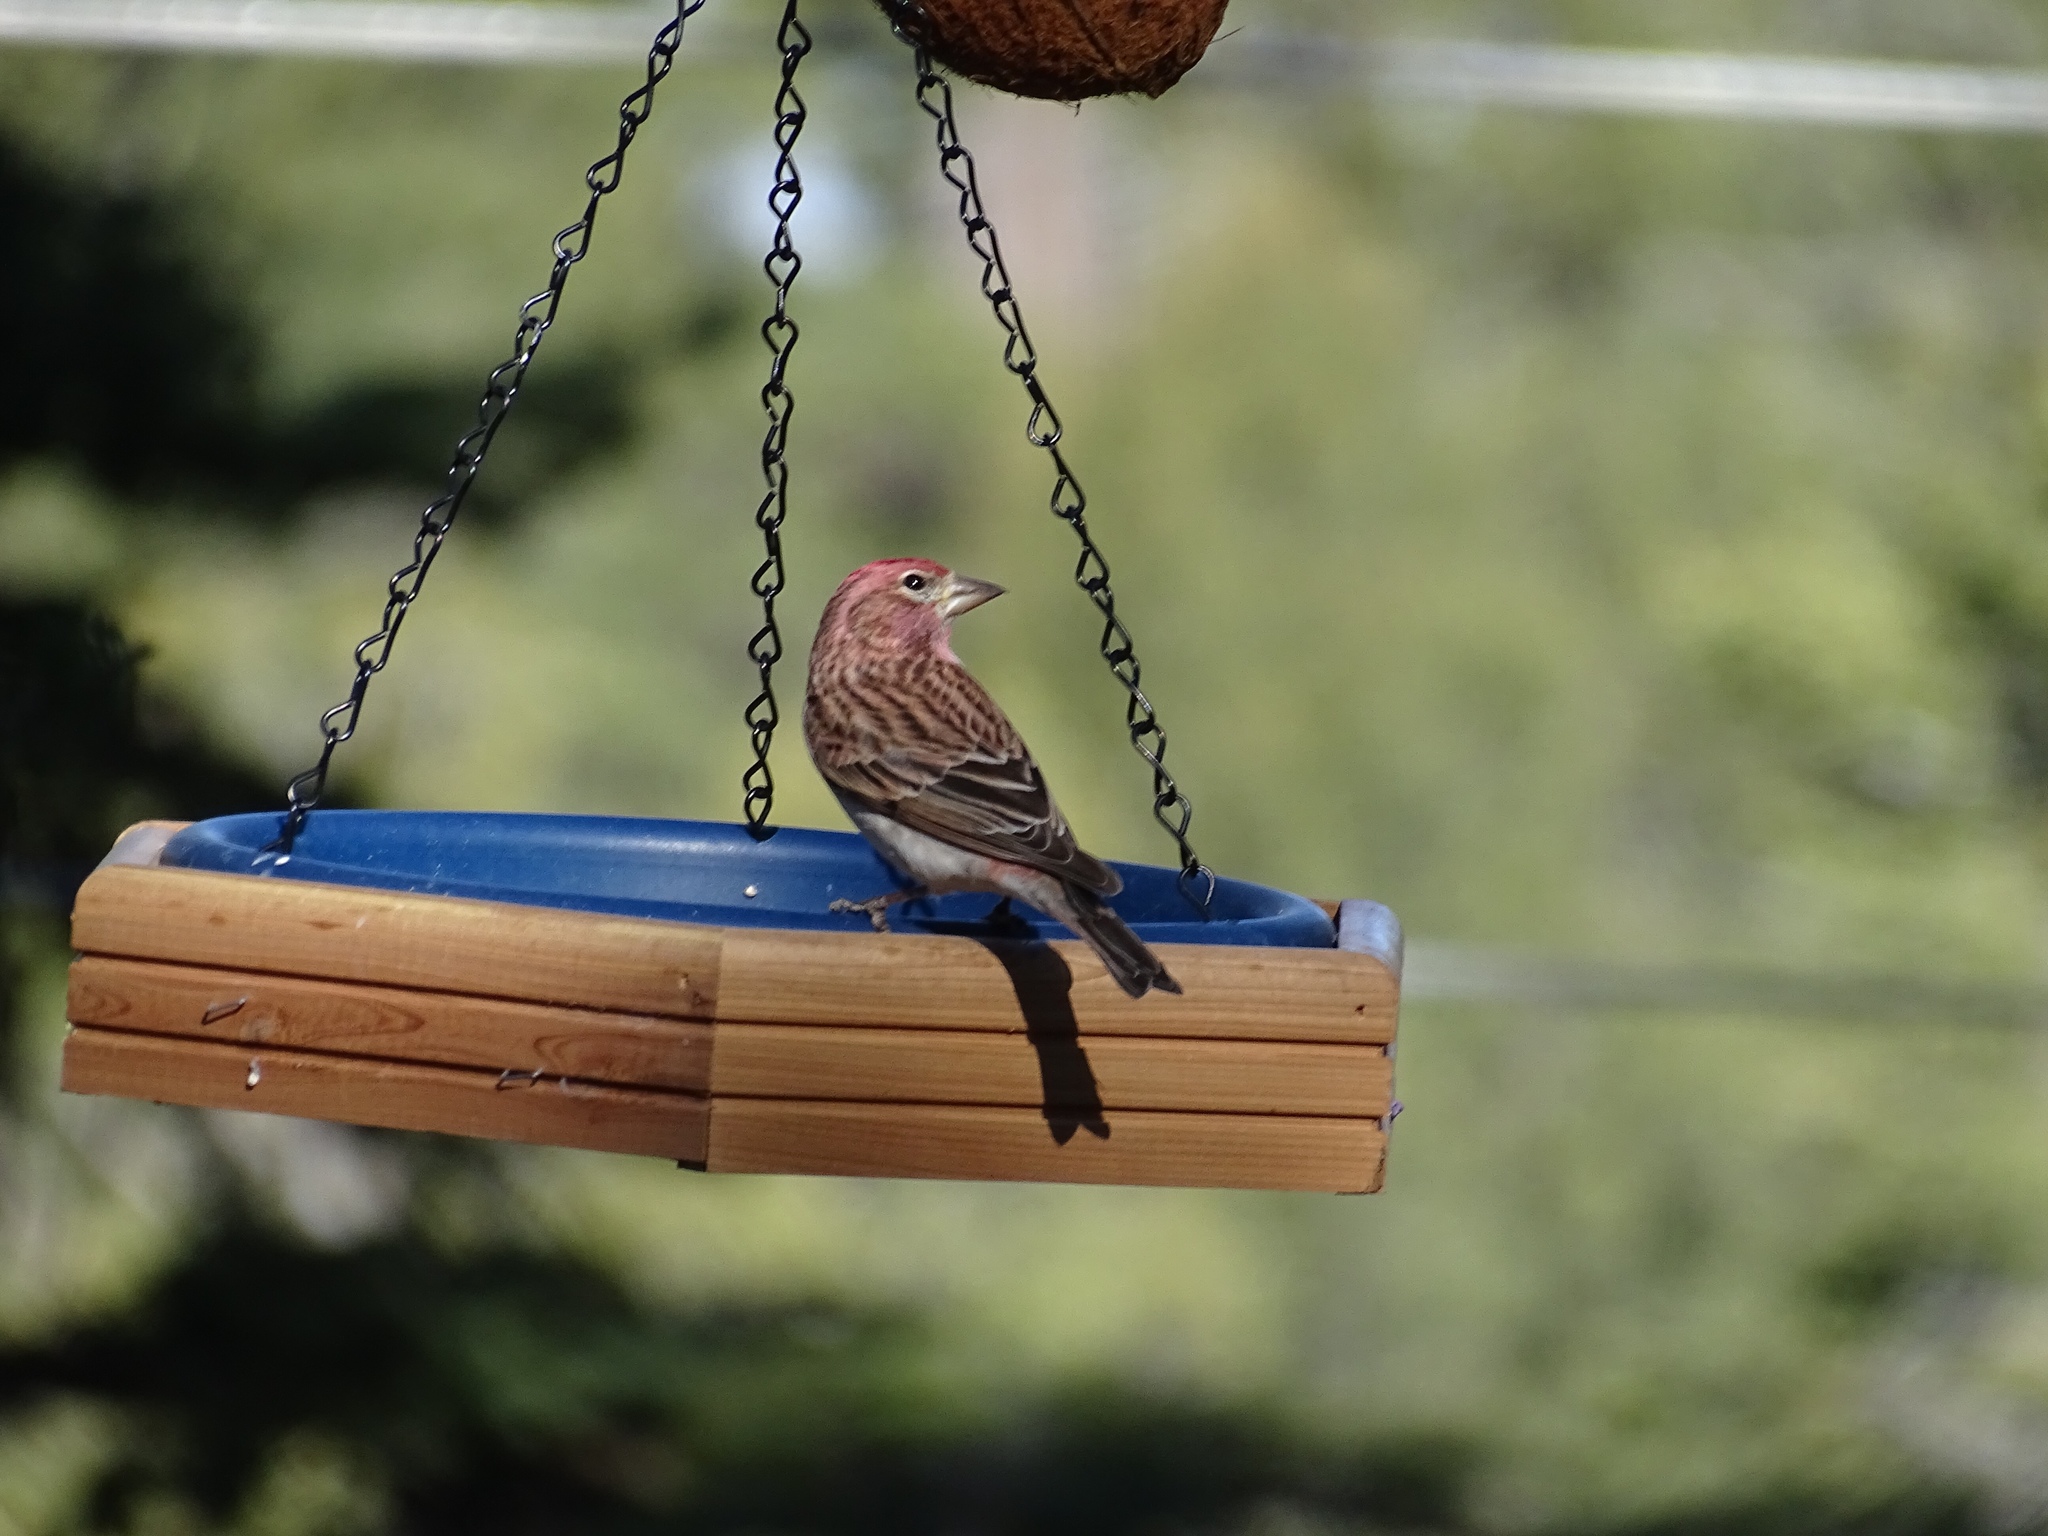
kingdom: Animalia
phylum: Chordata
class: Aves
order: Passeriformes
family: Fringillidae
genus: Haemorhous
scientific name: Haemorhous cassinii
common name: Cassin's finch
